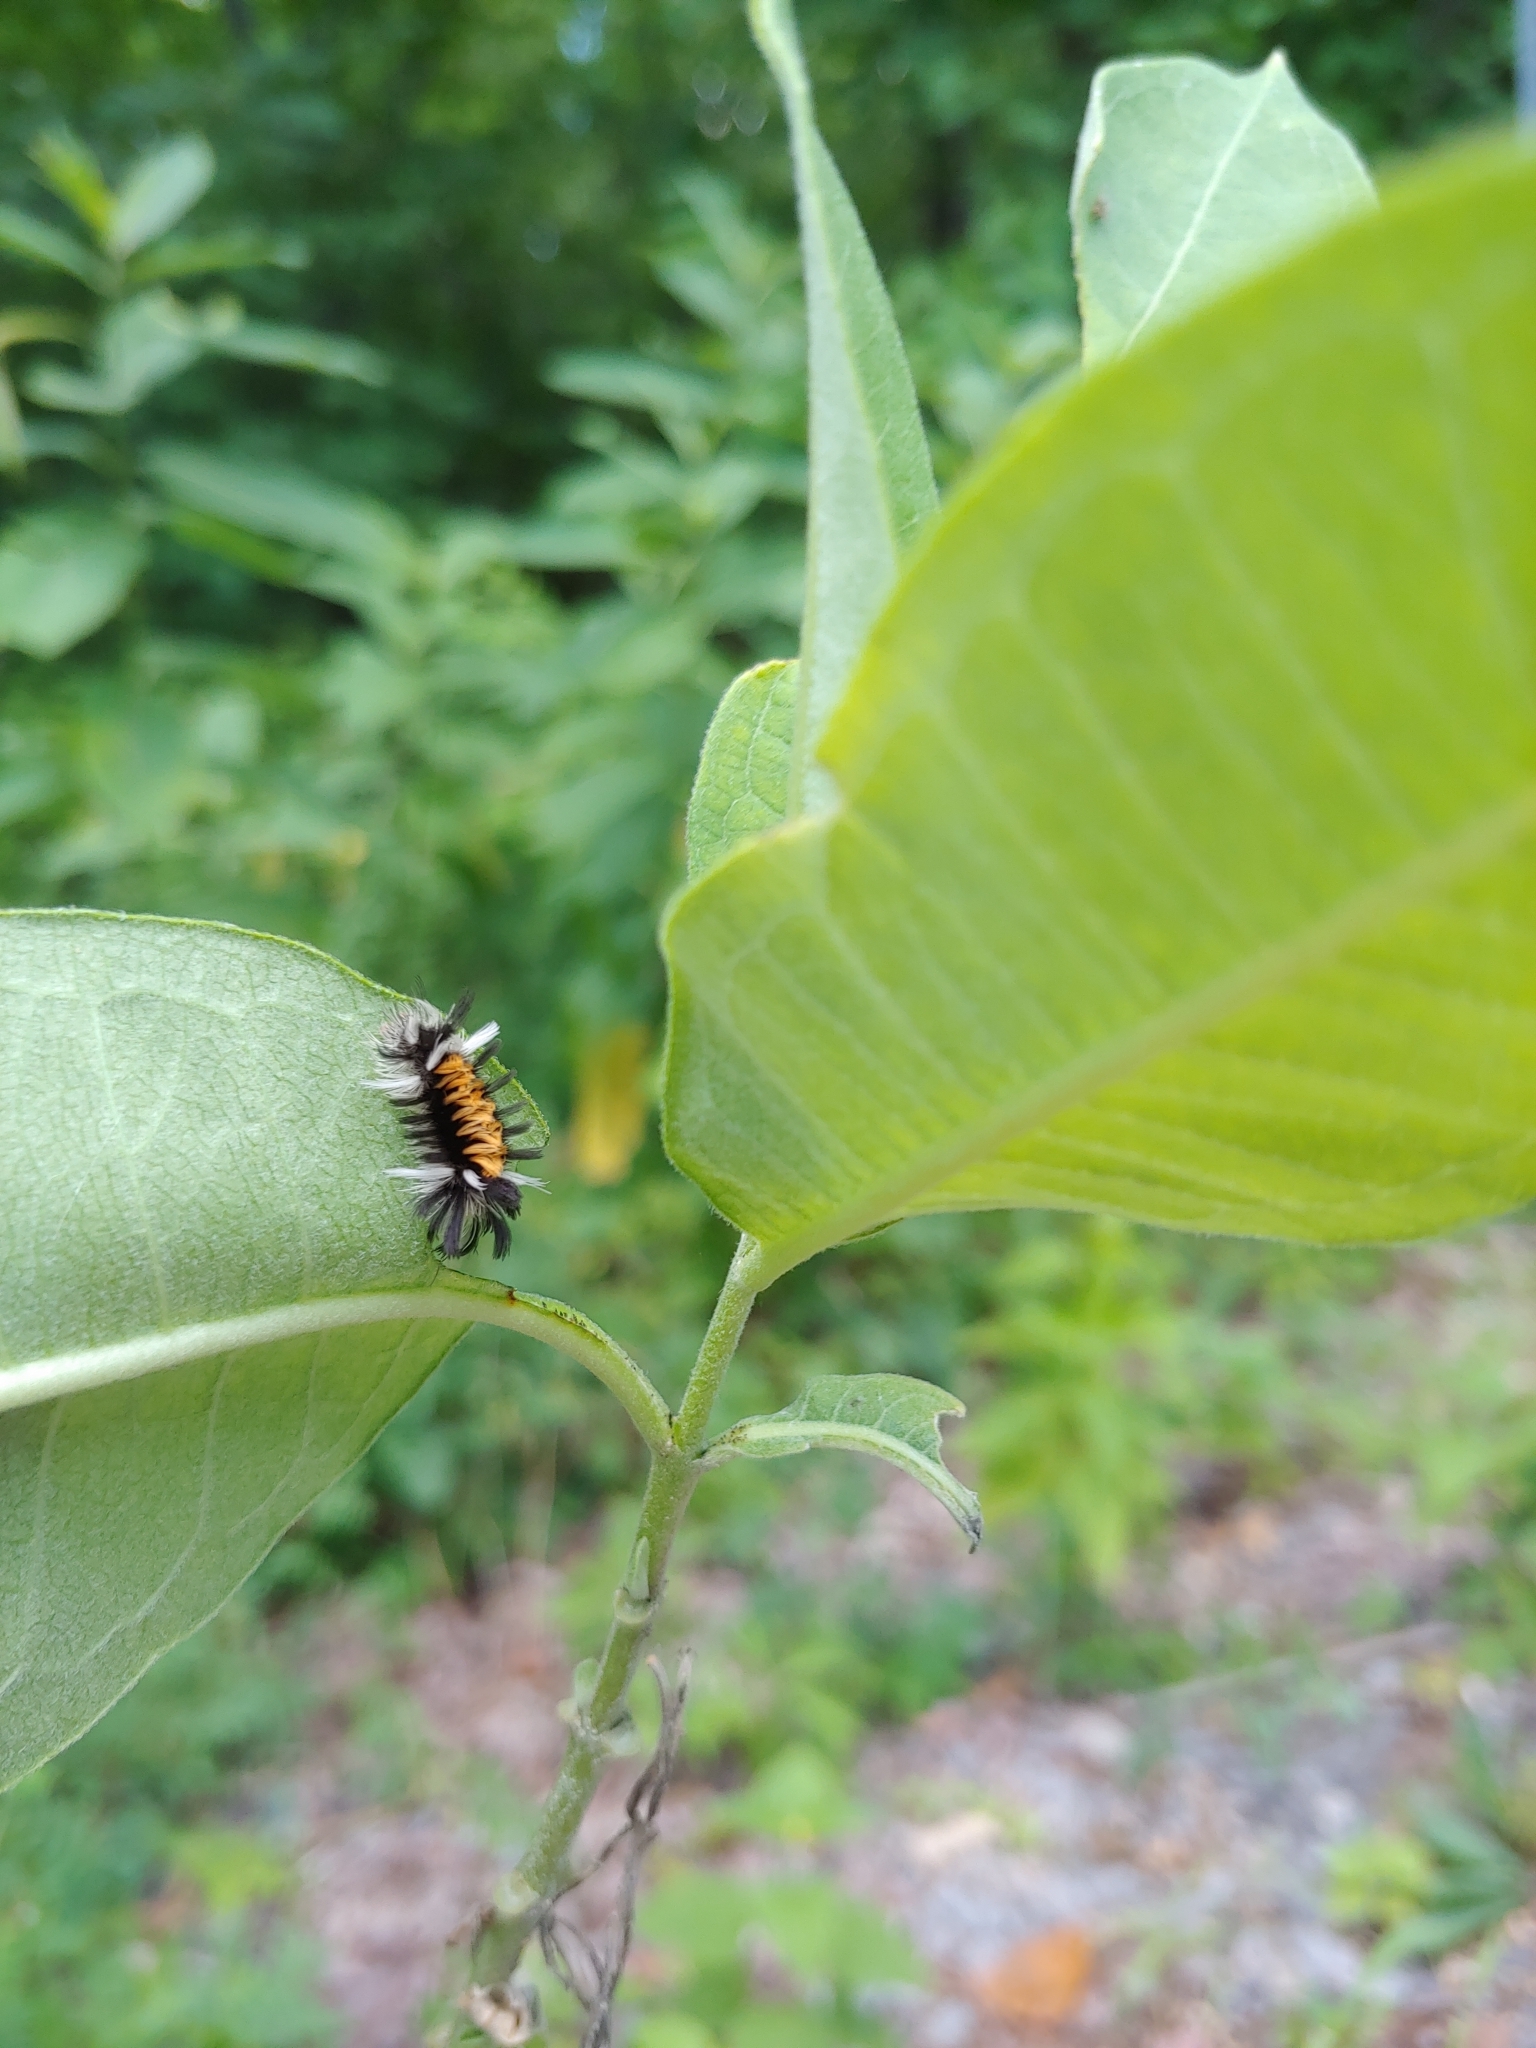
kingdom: Animalia
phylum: Arthropoda
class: Insecta
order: Lepidoptera
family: Erebidae
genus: Euchaetes
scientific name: Euchaetes egle
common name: Milkweed tussock moth
